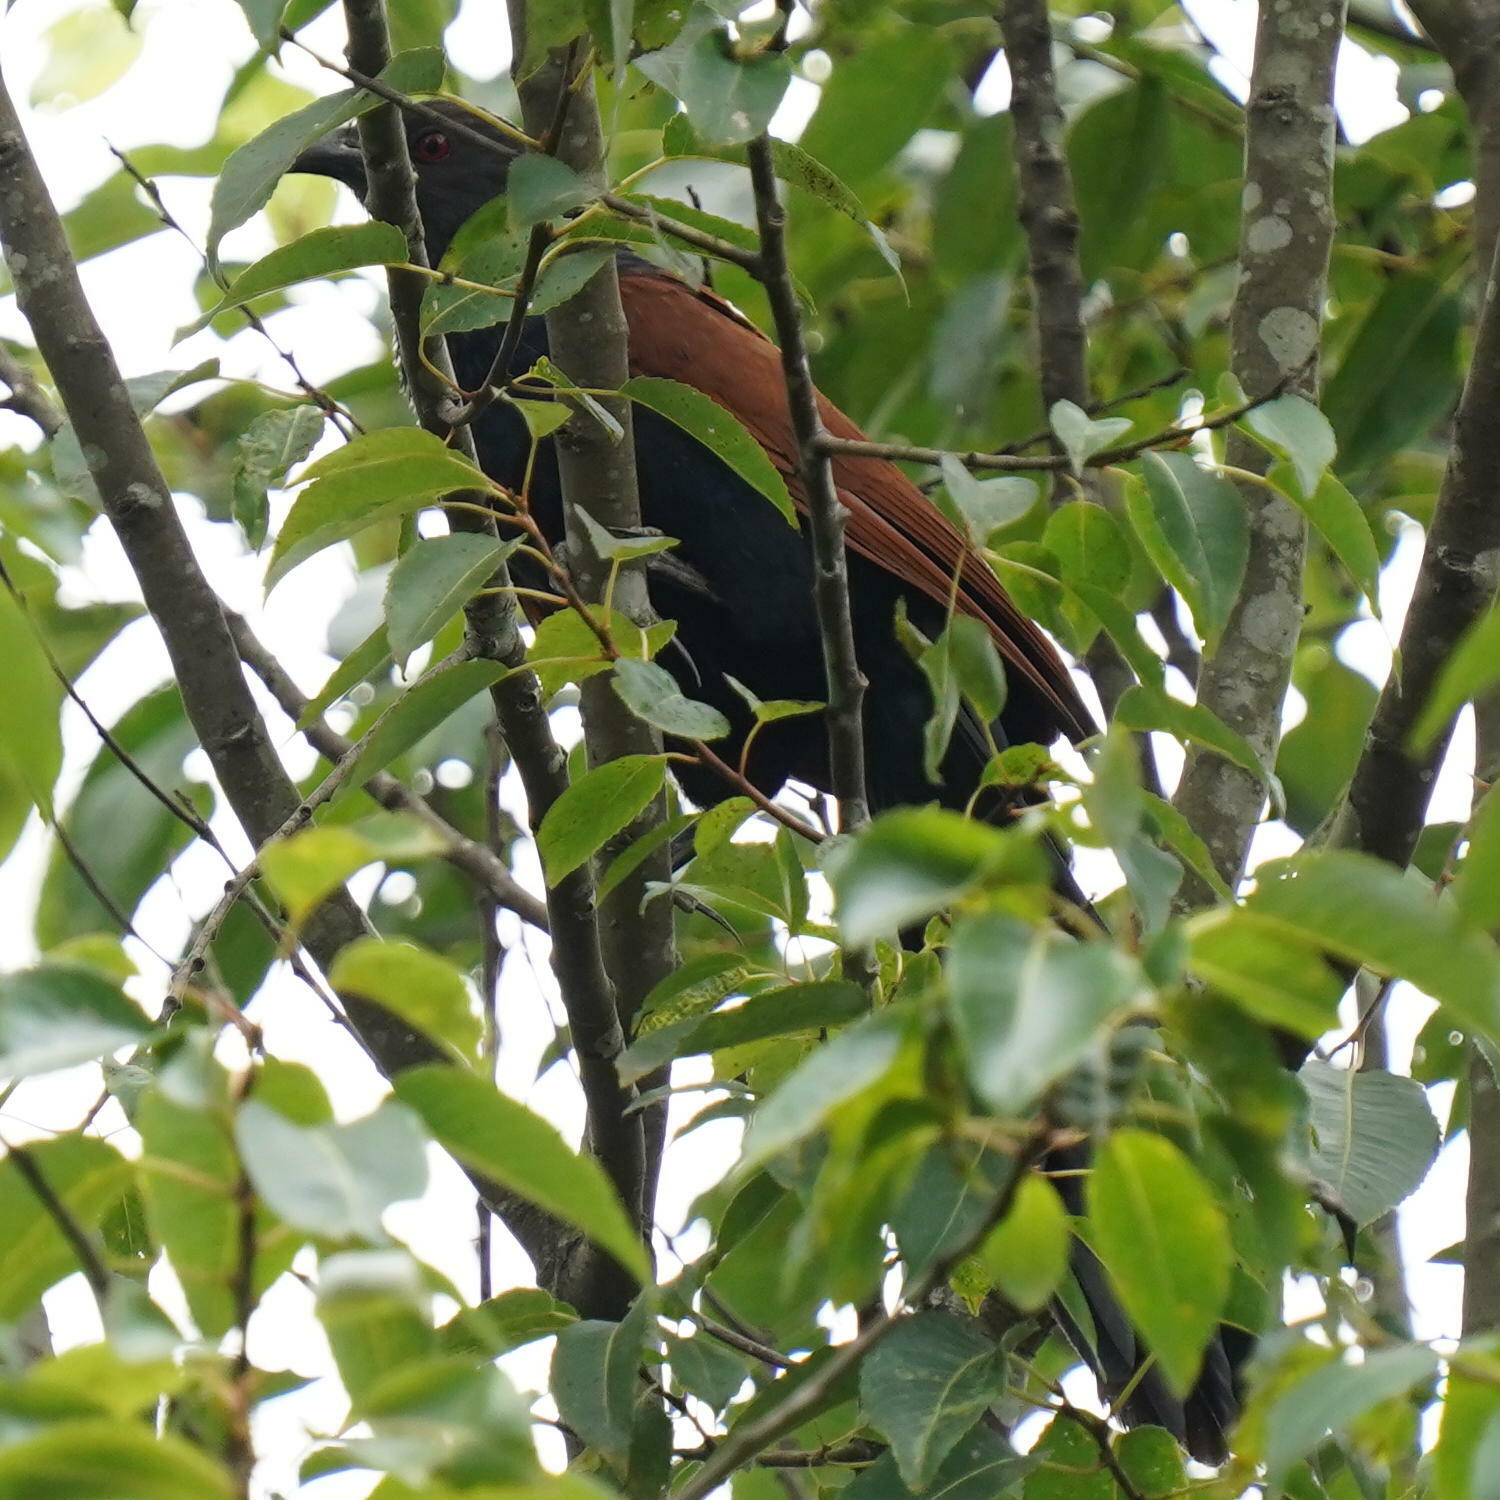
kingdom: Animalia
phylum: Chordata
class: Aves
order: Cuculiformes
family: Cuculidae
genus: Centropus
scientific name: Centropus sinensis
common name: Greater coucal
